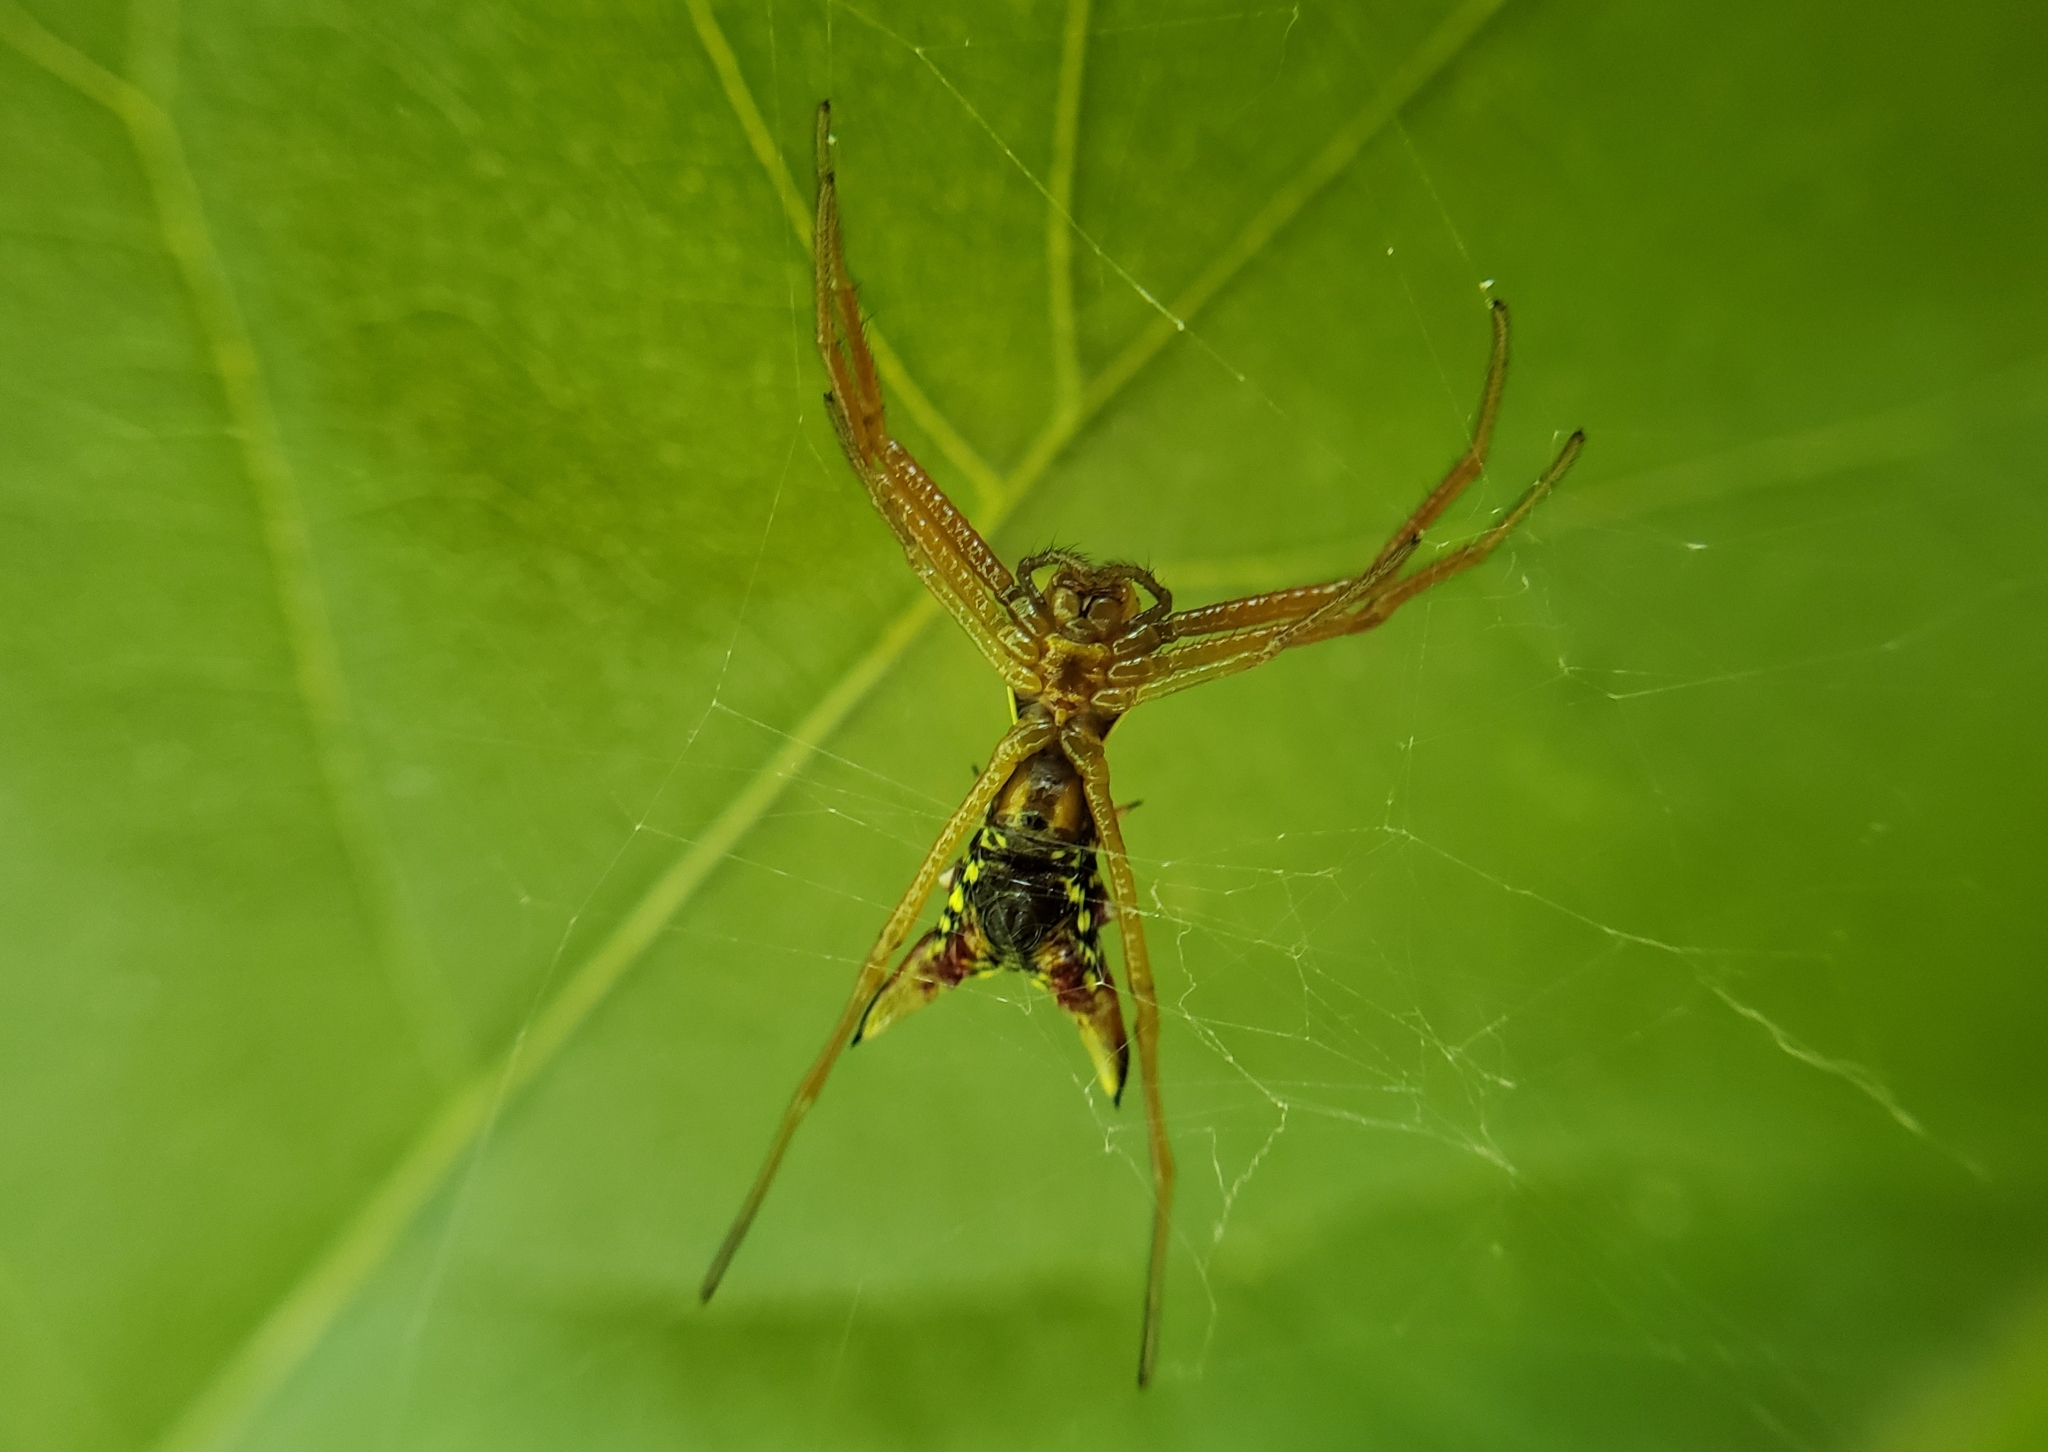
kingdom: Animalia
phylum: Arthropoda
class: Arachnida
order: Araneae
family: Araneidae
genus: Micrathena
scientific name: Micrathena sagittata
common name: Orb weavers
